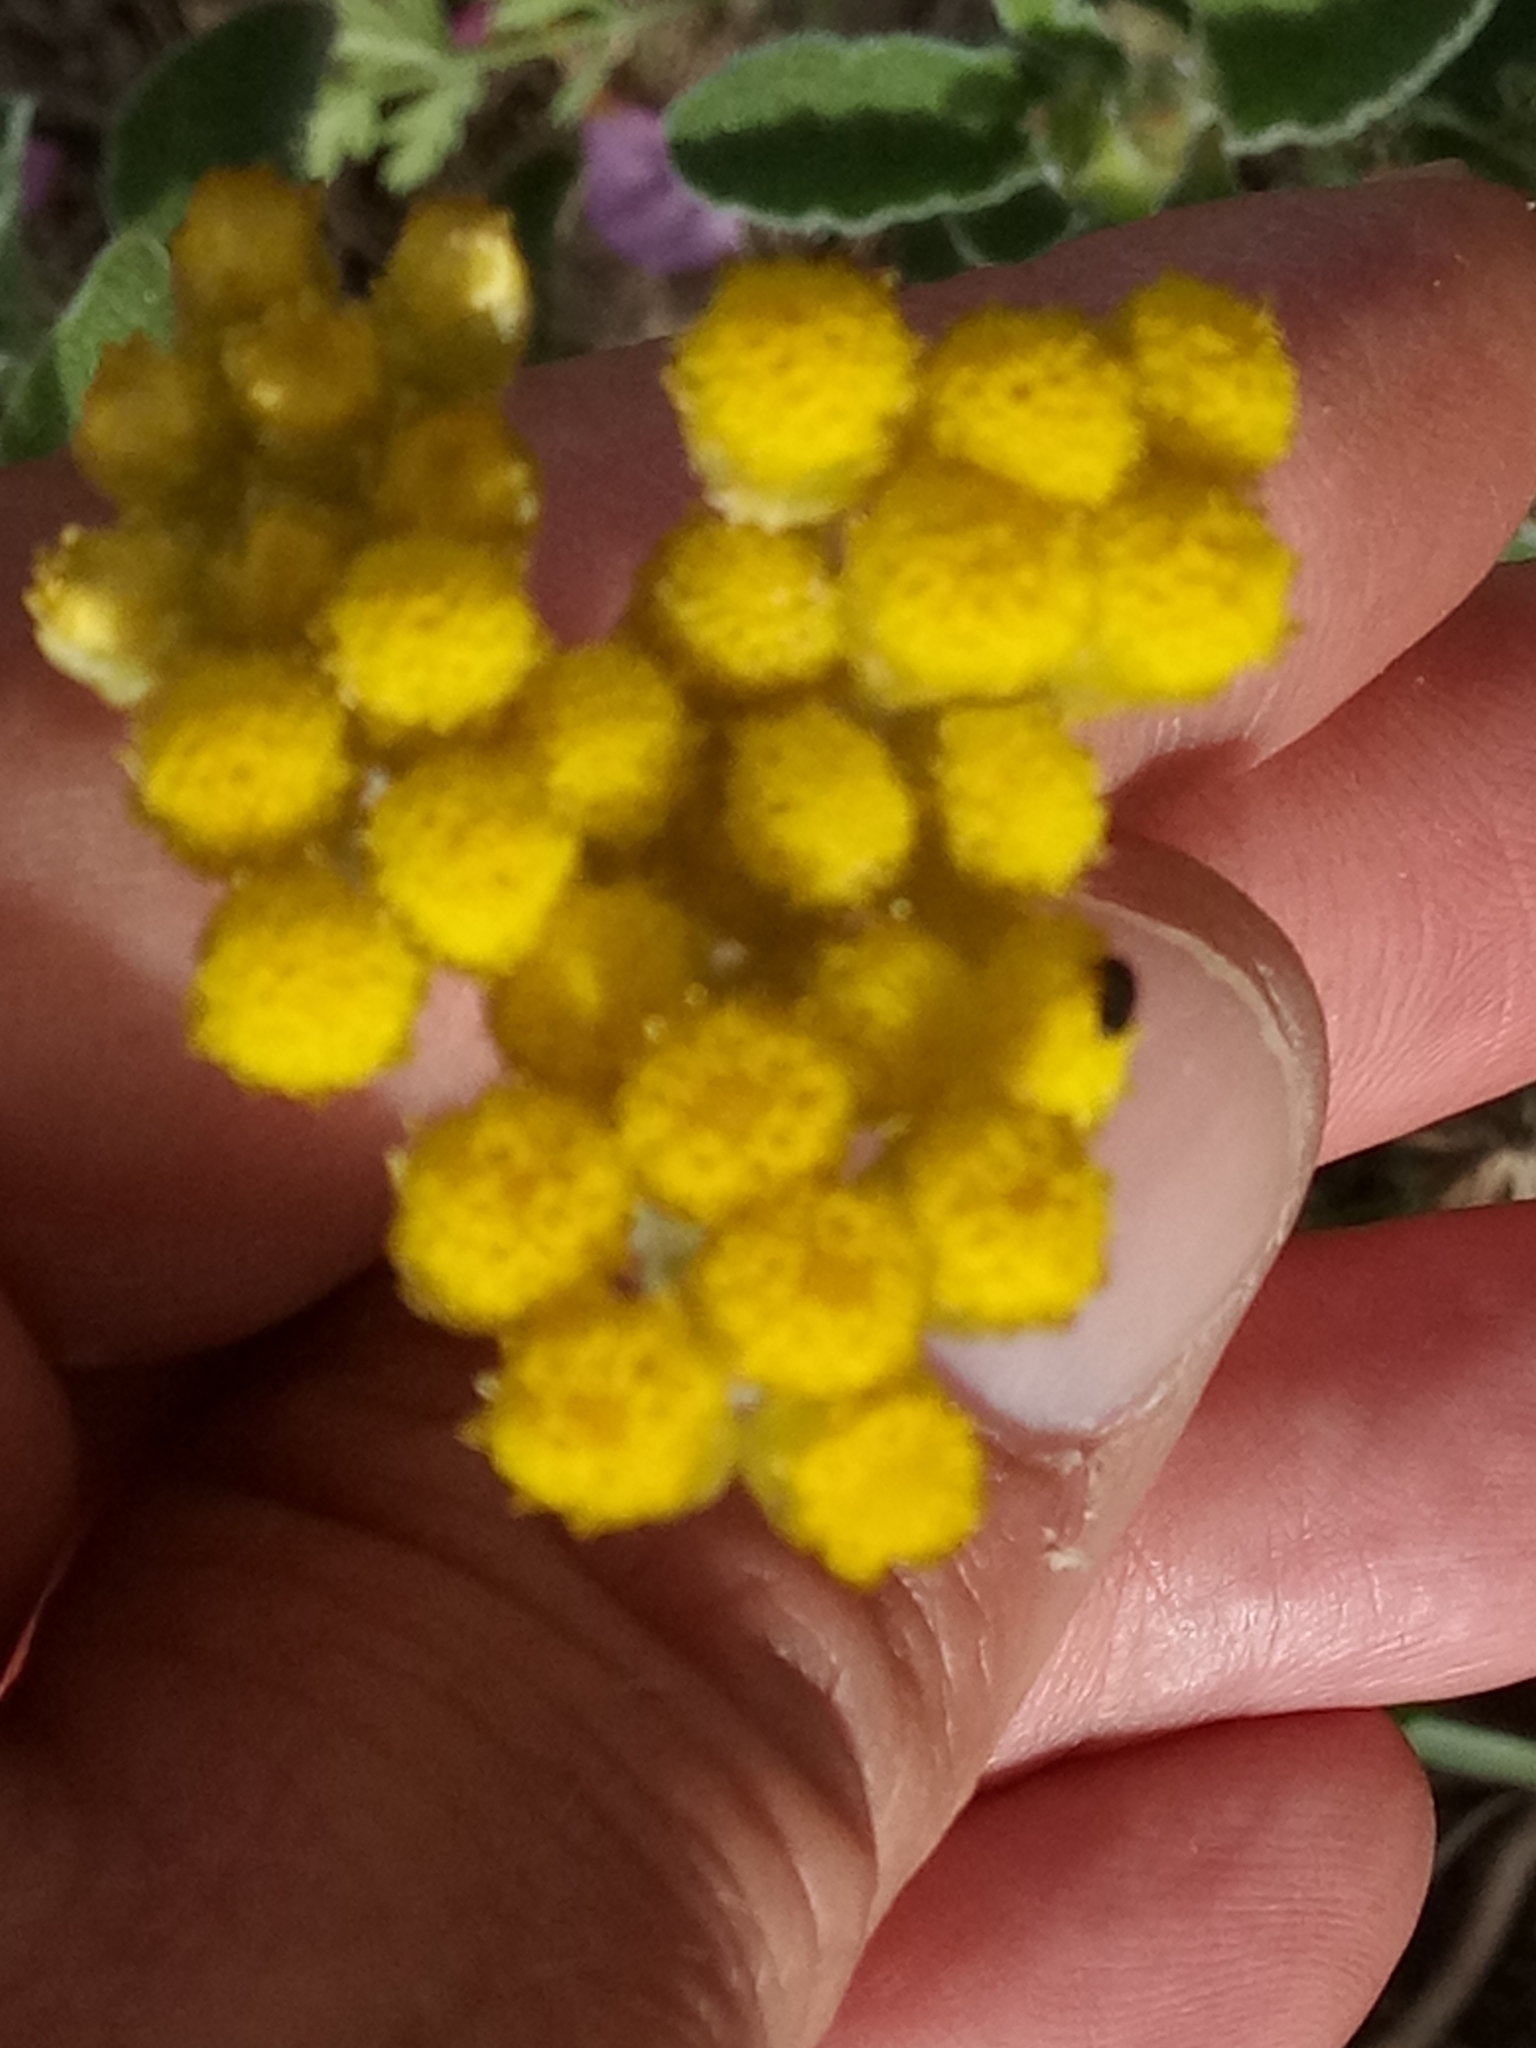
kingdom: Plantae
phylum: Tracheophyta
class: Magnoliopsida
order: Asterales
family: Asteraceae
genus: Helichrysum
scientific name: Helichrysum pendulum
